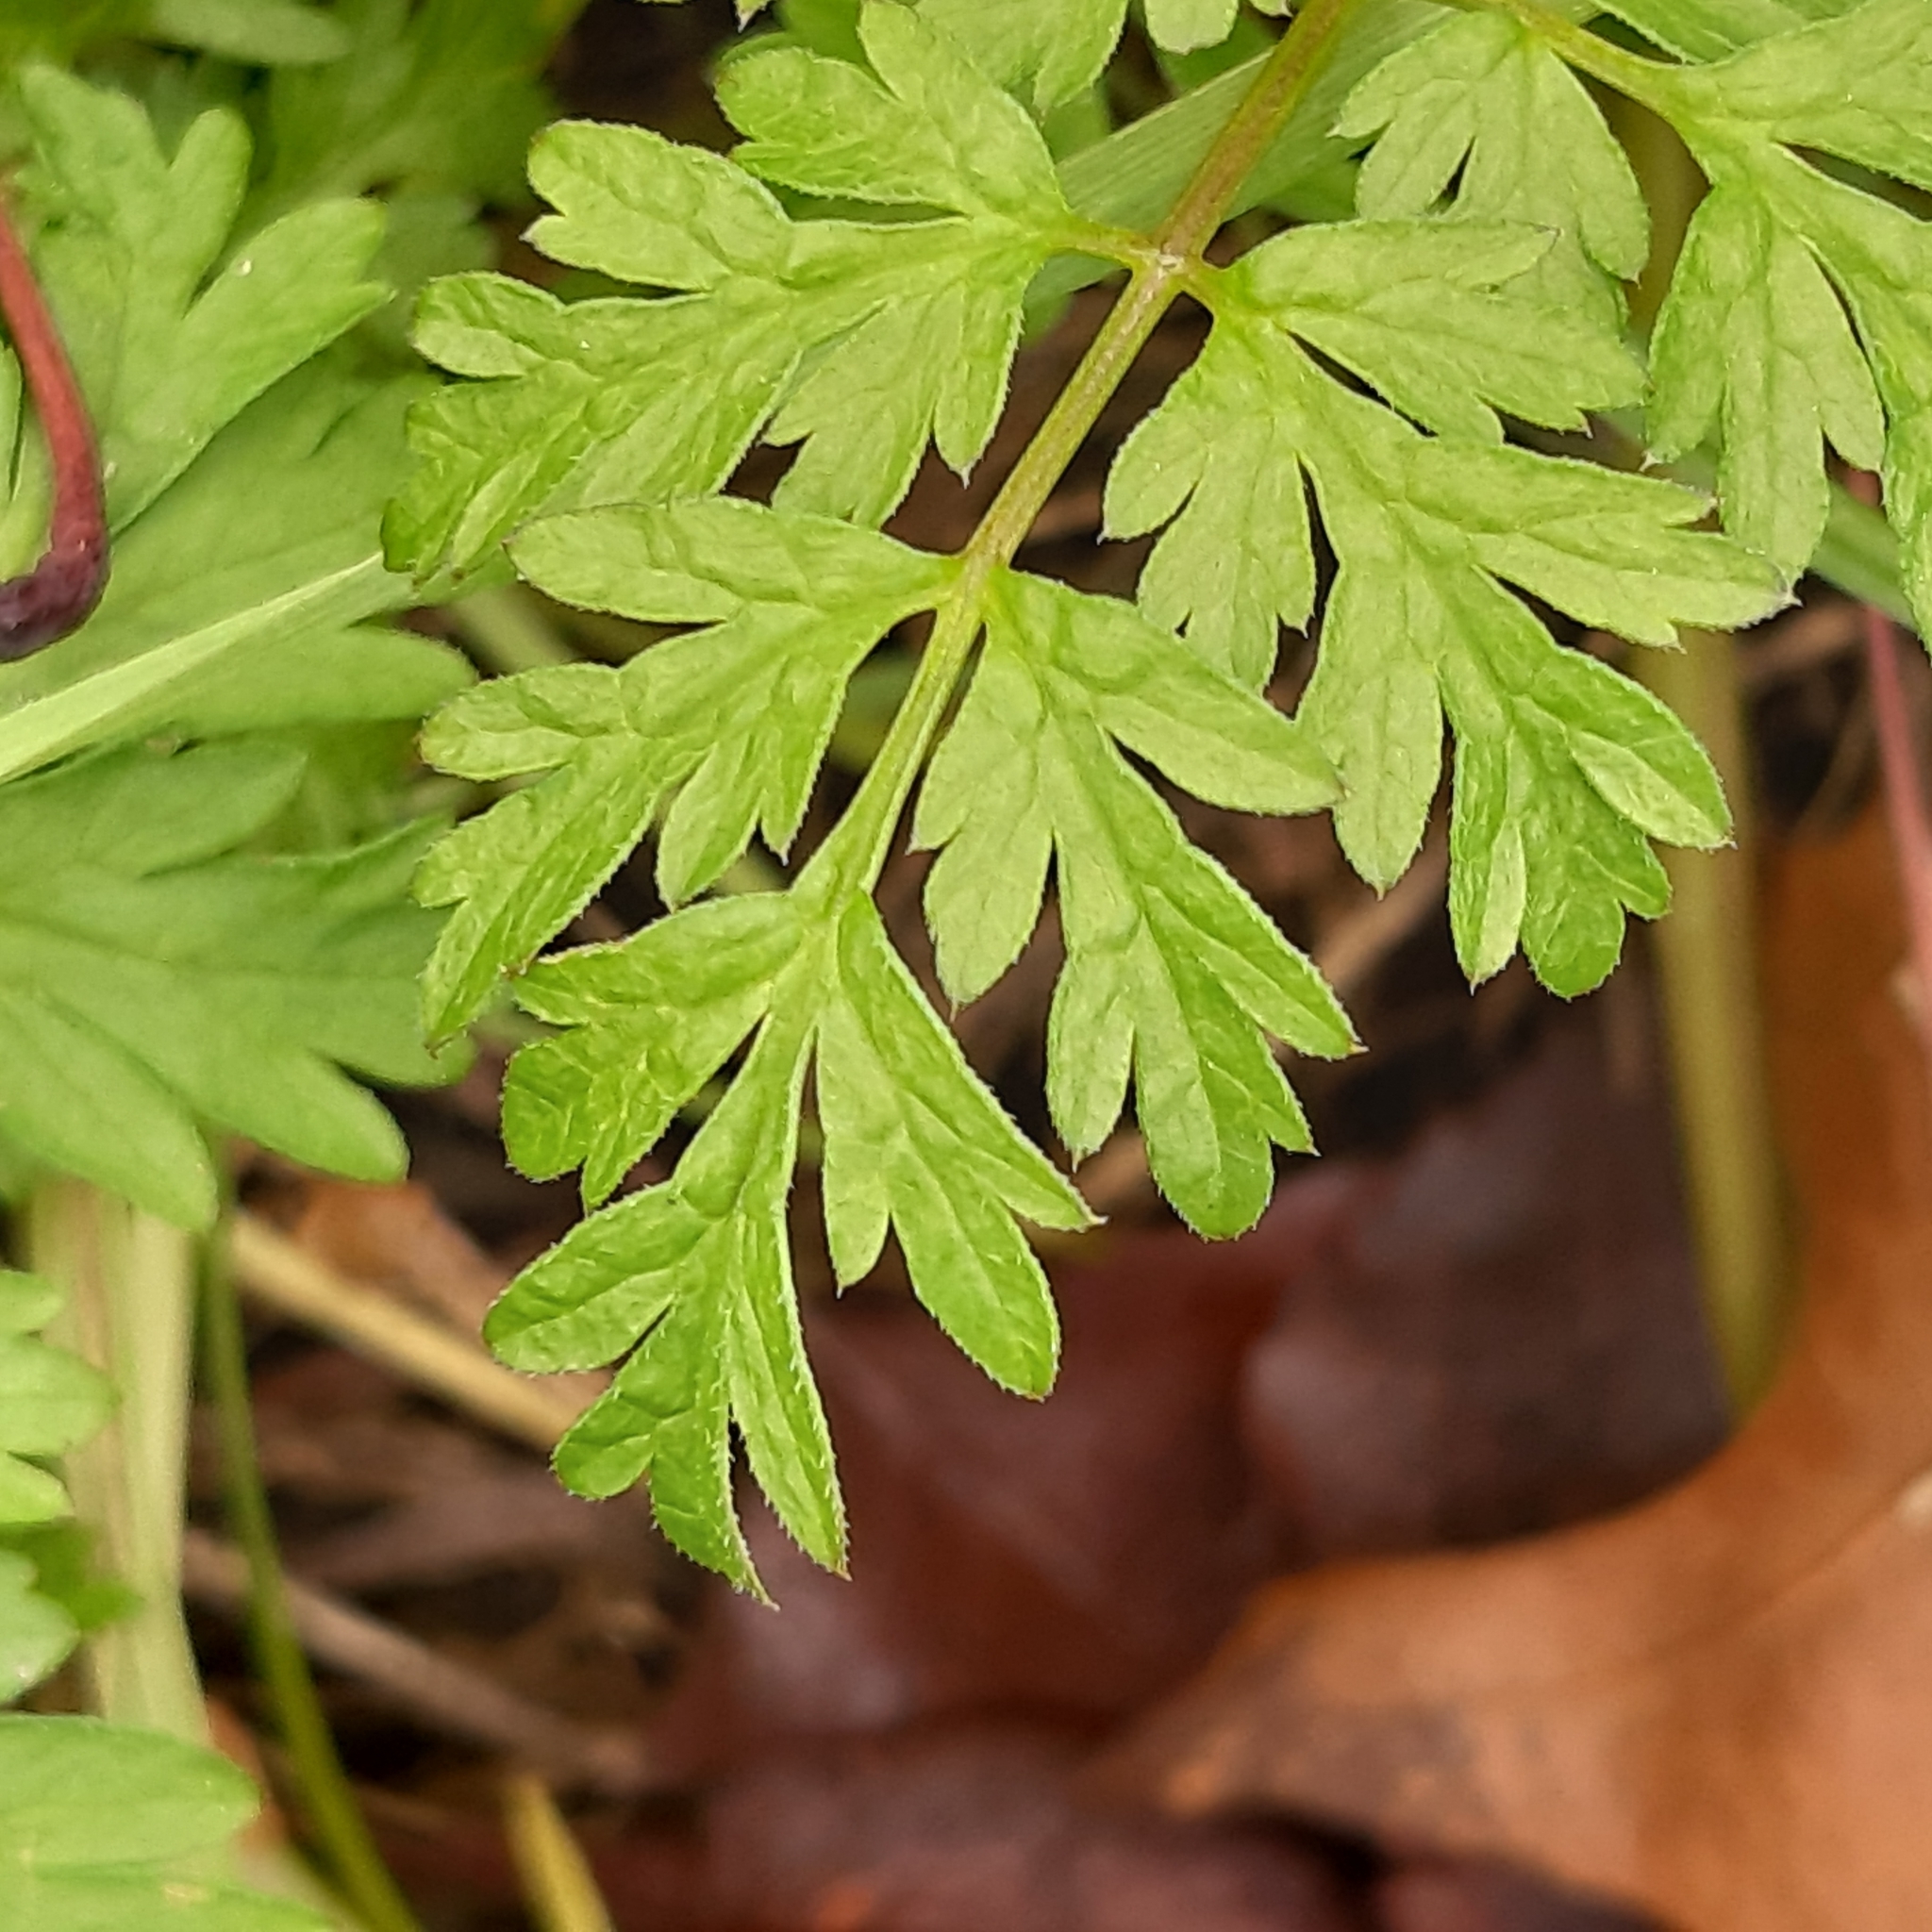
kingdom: Plantae
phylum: Tracheophyta
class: Magnoliopsida
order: Apiales
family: Apiaceae
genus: Anthriscus
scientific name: Anthriscus sylvestris
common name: Cow parsley
